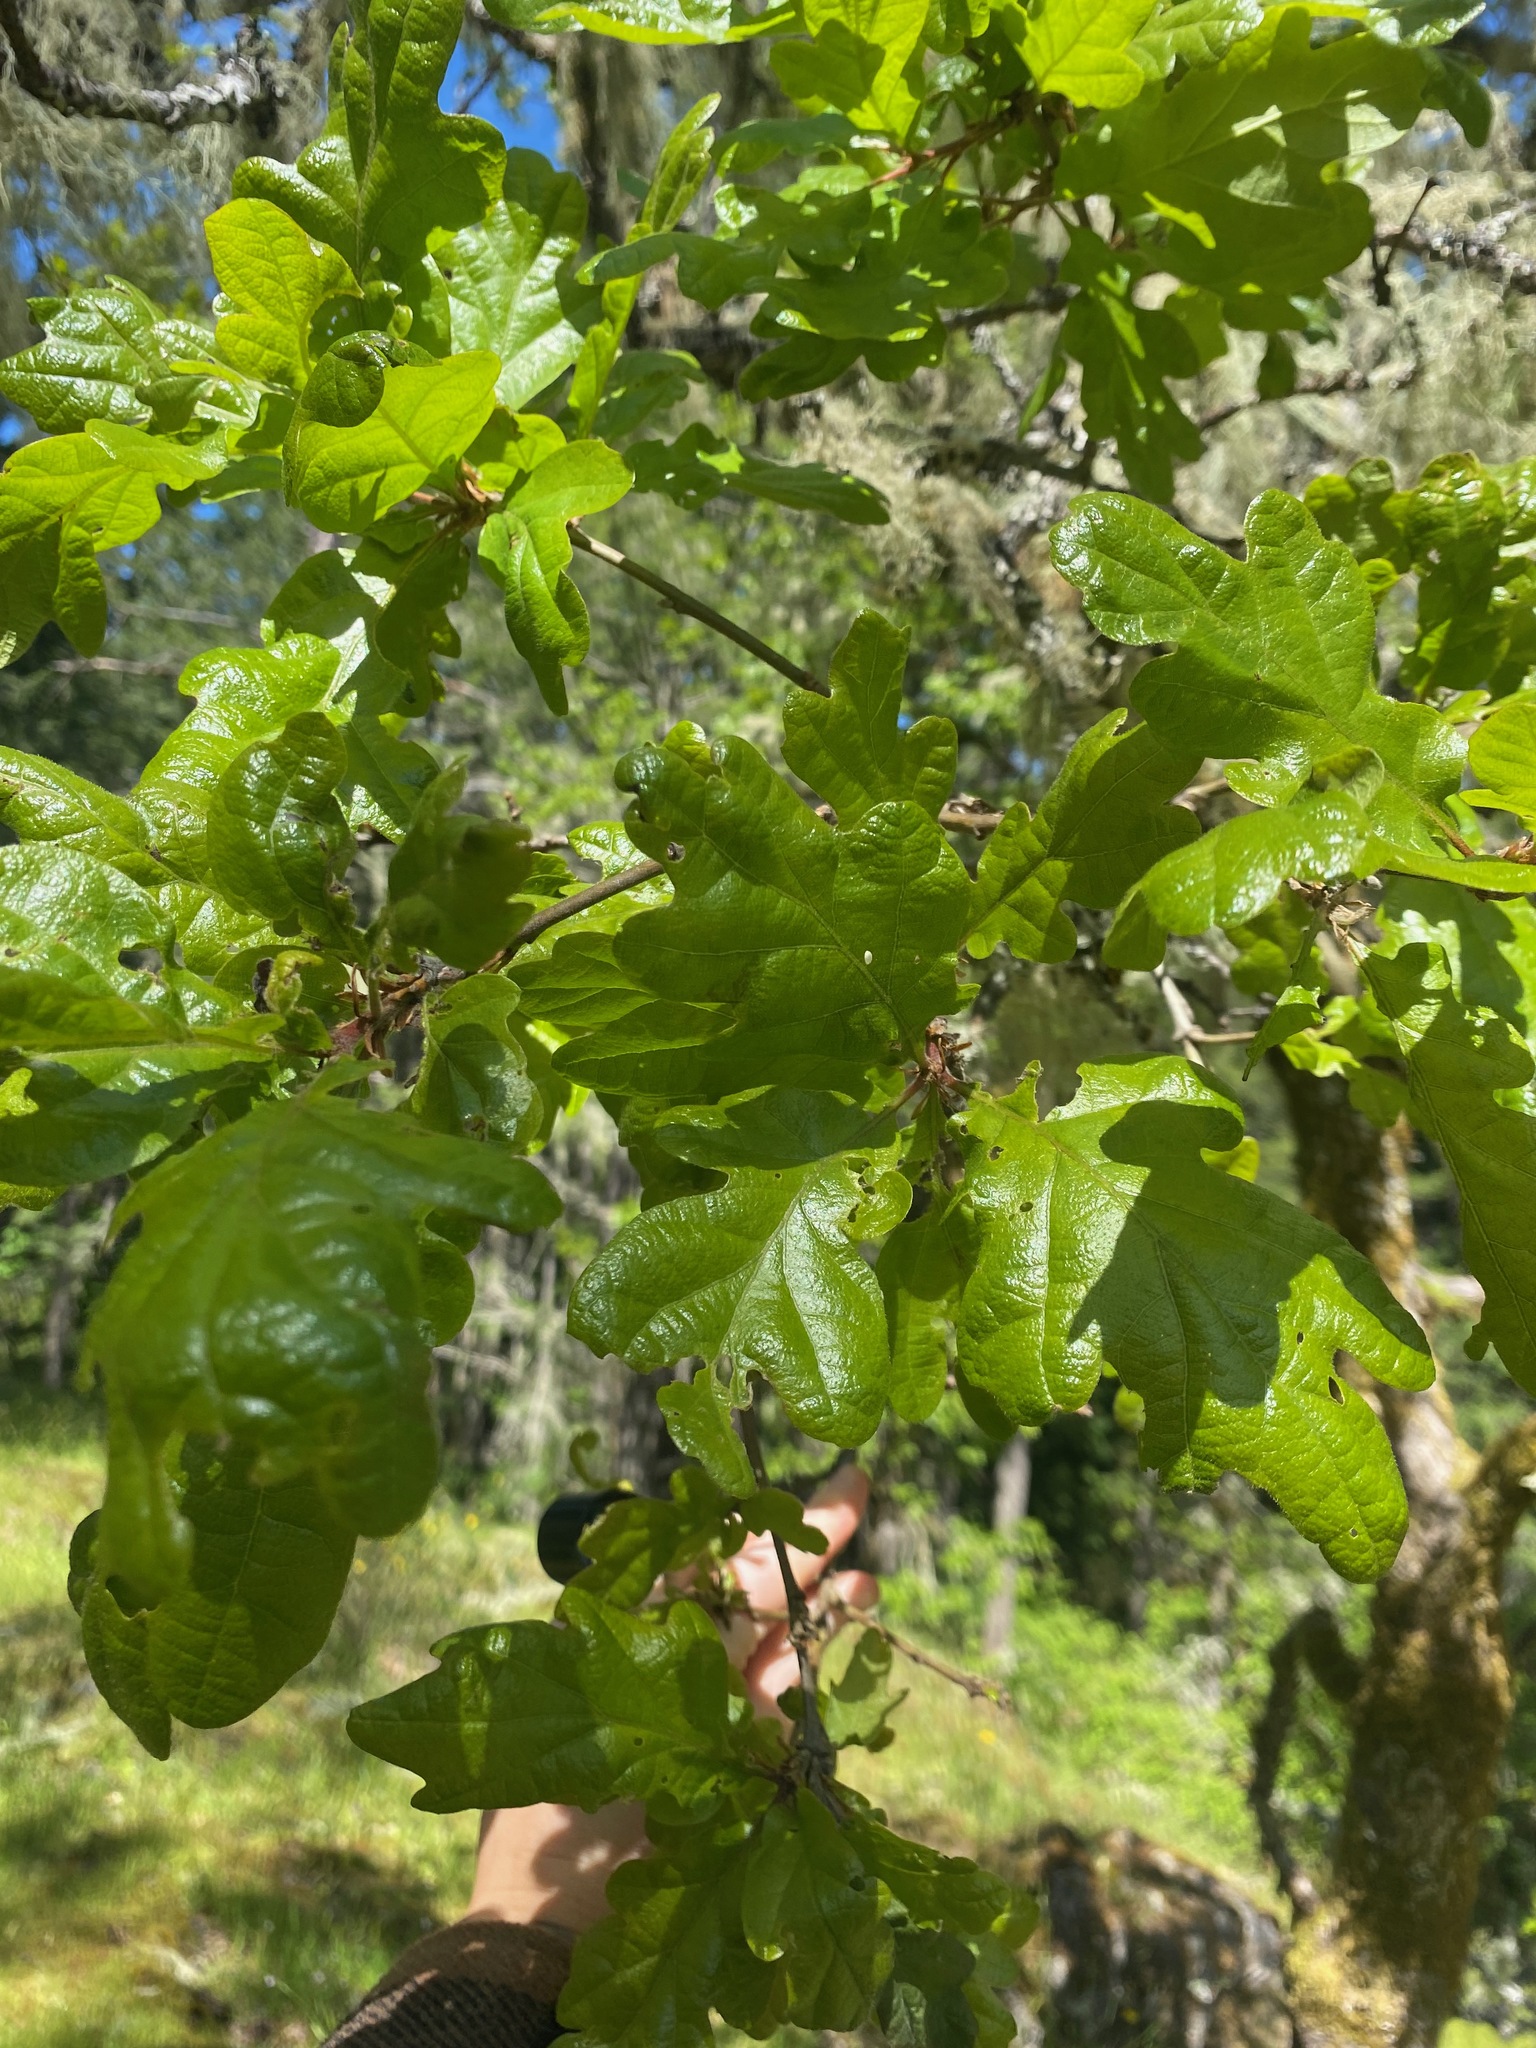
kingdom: Plantae
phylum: Tracheophyta
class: Magnoliopsida
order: Fagales
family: Fagaceae
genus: Quercus
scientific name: Quercus garryana
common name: Garry oak
